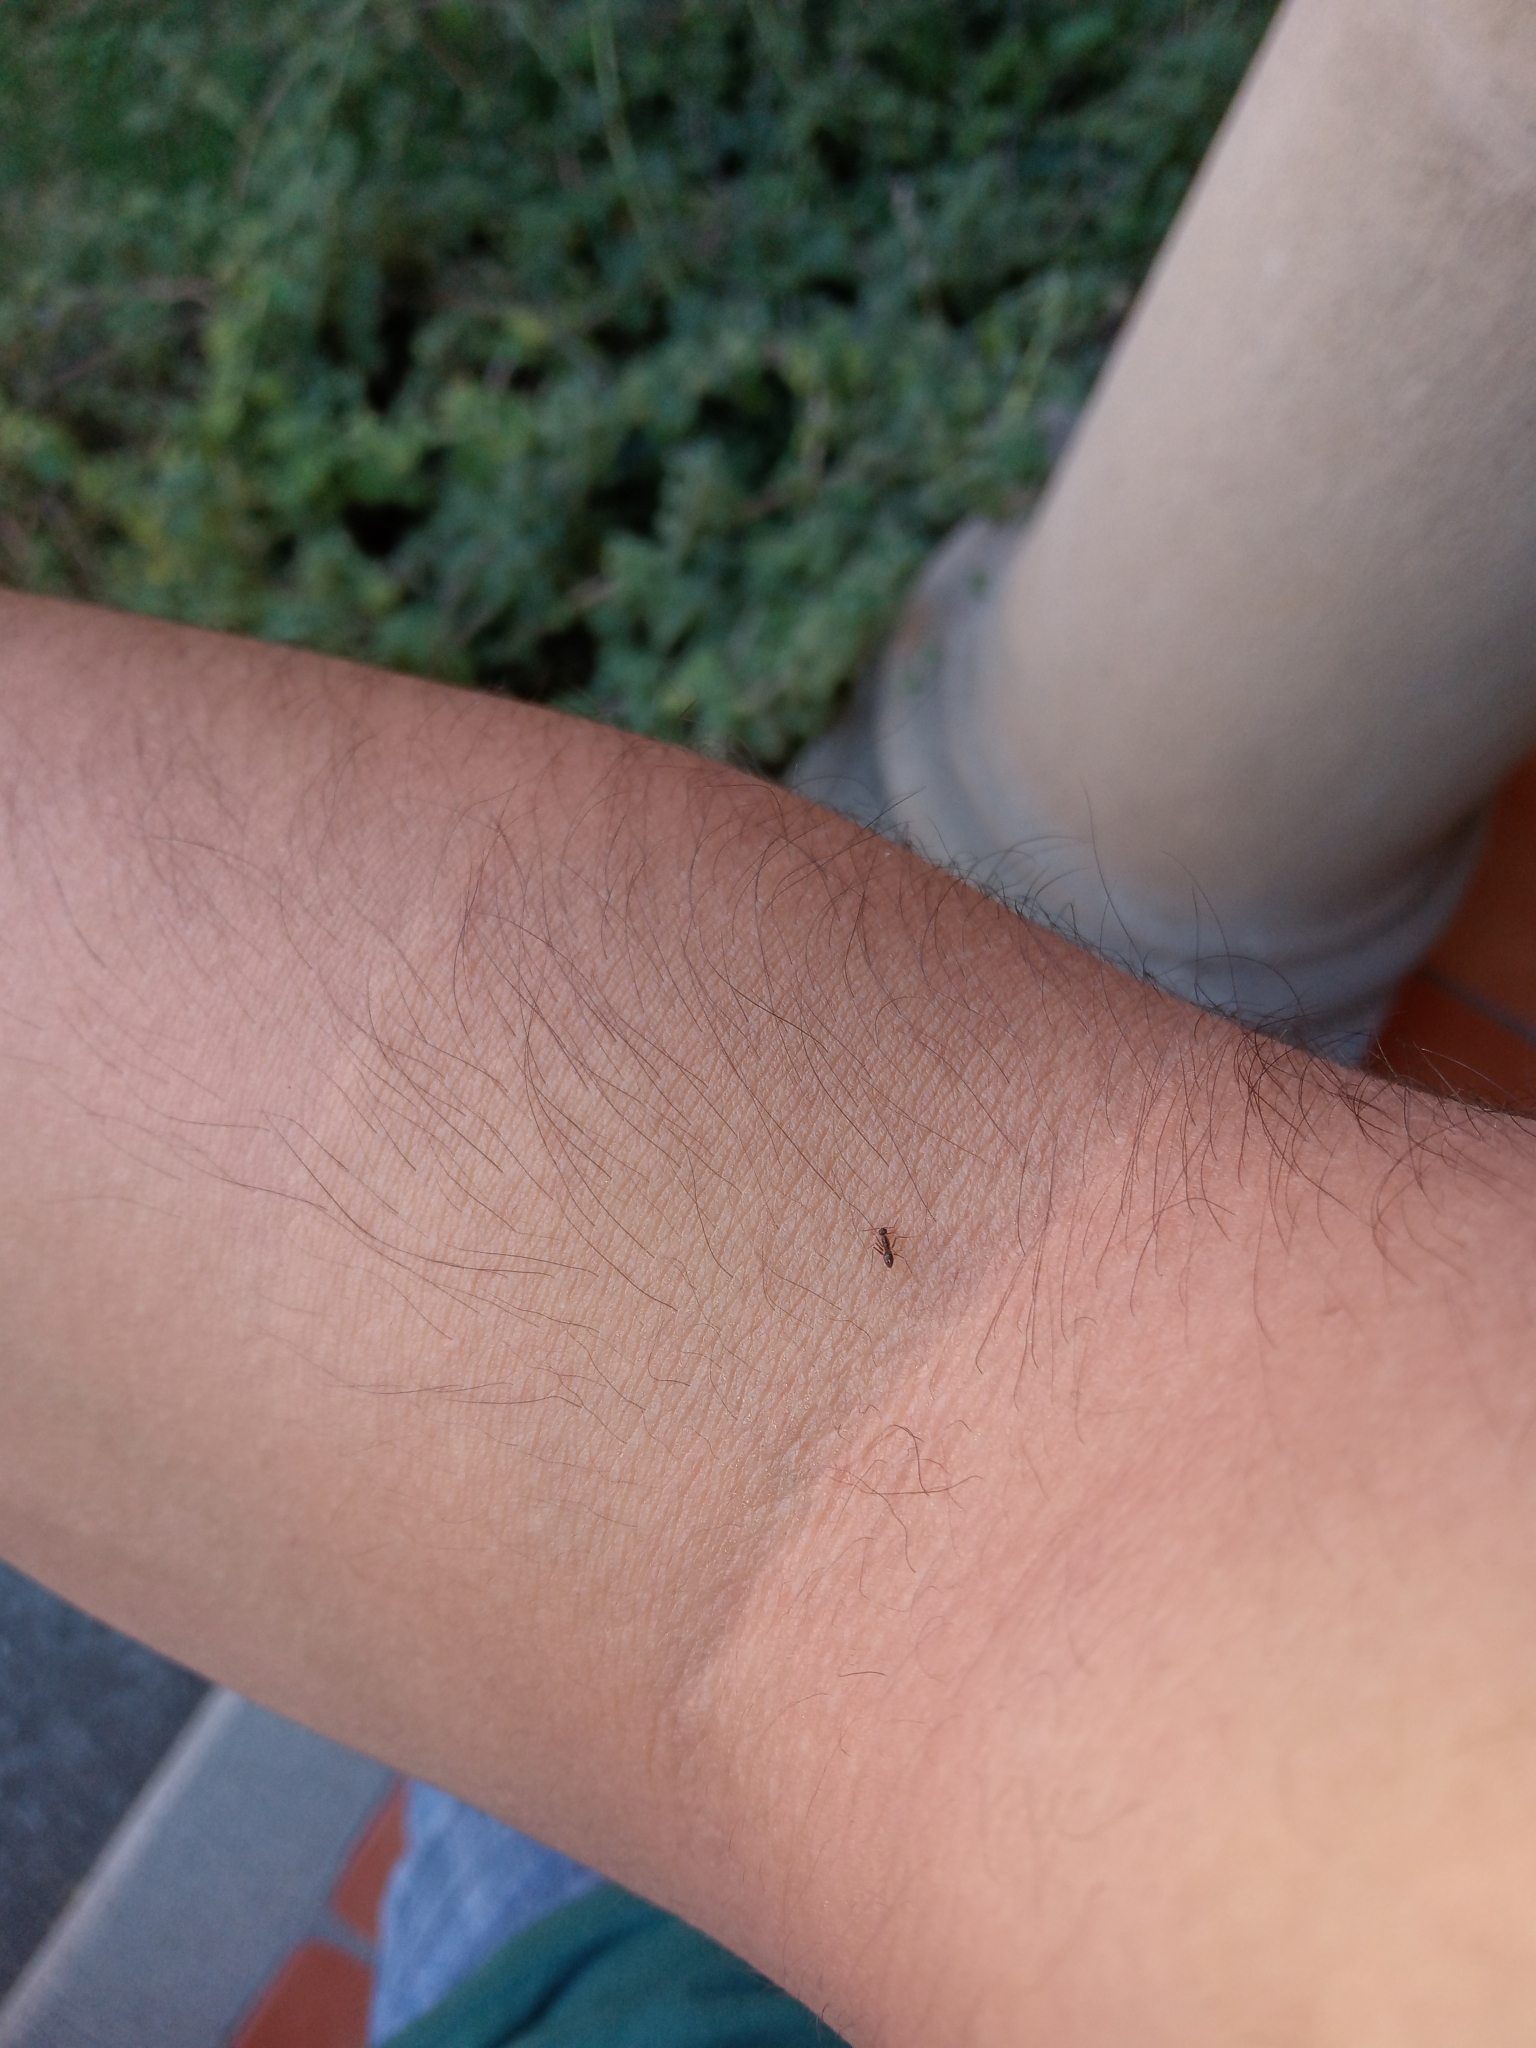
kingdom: Animalia
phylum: Arthropoda
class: Insecta
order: Hymenoptera
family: Formicidae
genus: Paratrechina
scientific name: Paratrechina longicornis
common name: Longhorned crazy ant
